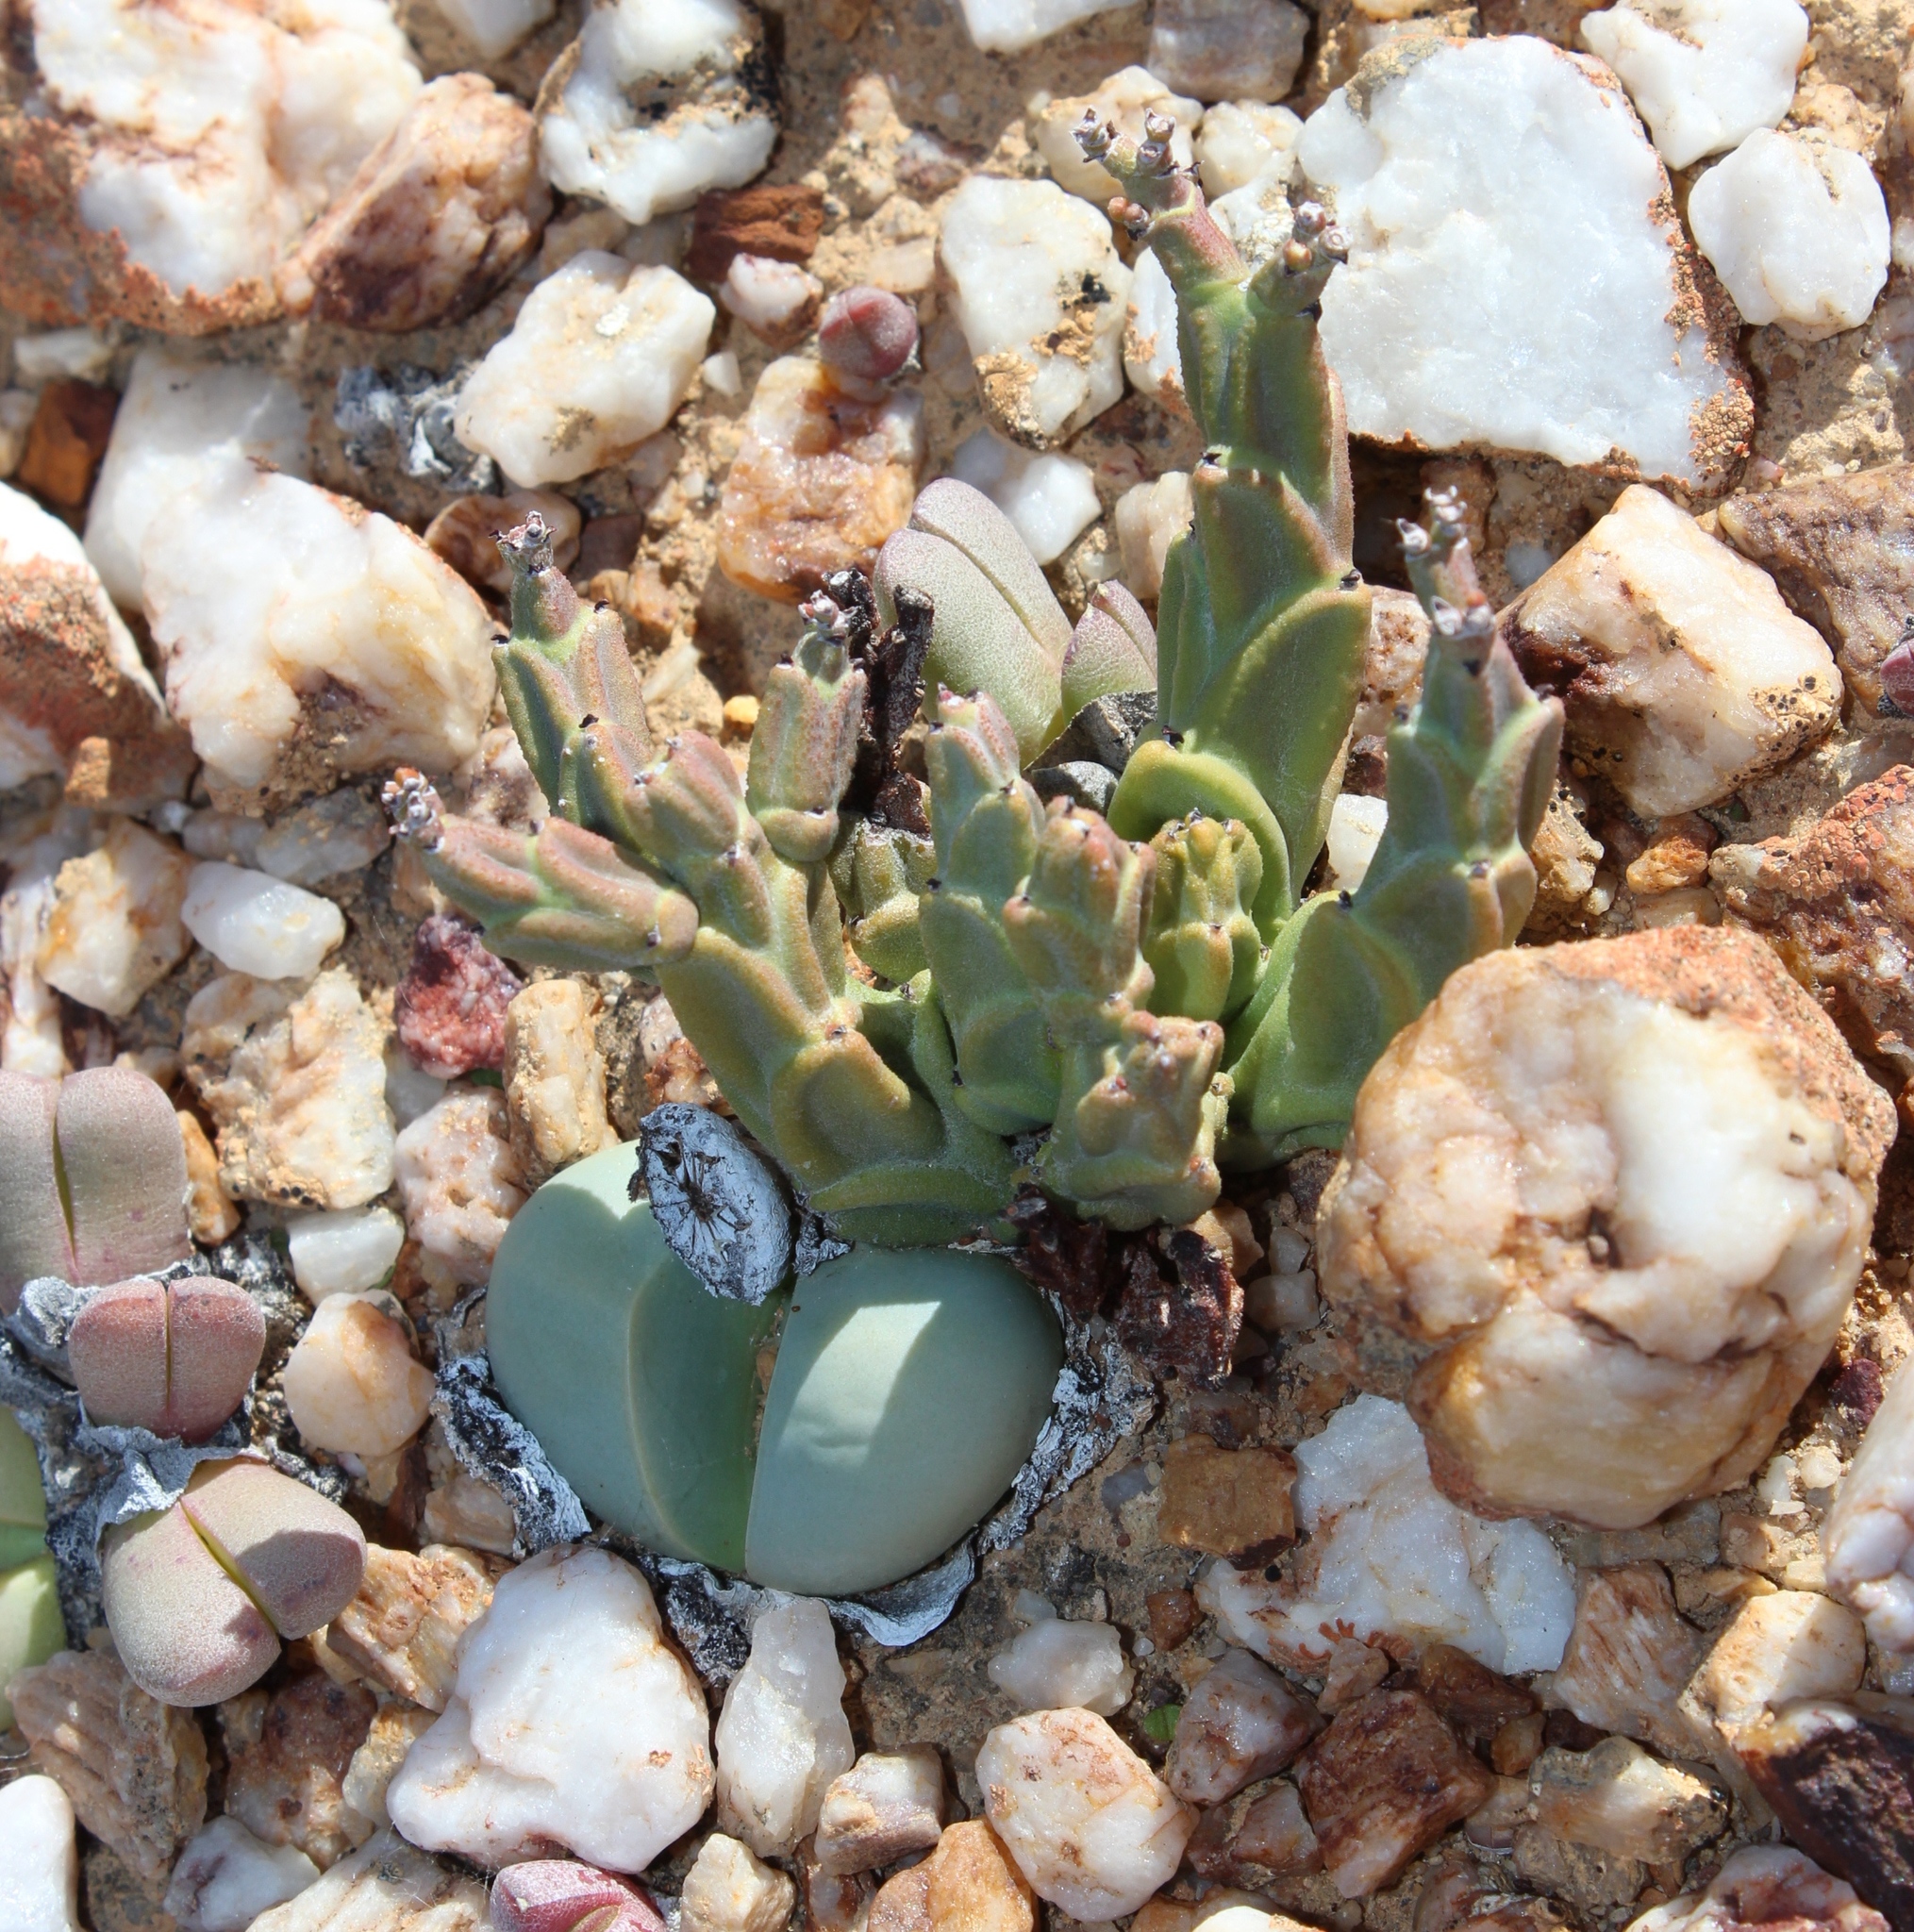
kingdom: Plantae
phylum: Tracheophyta
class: Magnoliopsida
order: Caryophyllales
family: Aizoaceae
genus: Argyroderma
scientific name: Argyroderma delaetii
